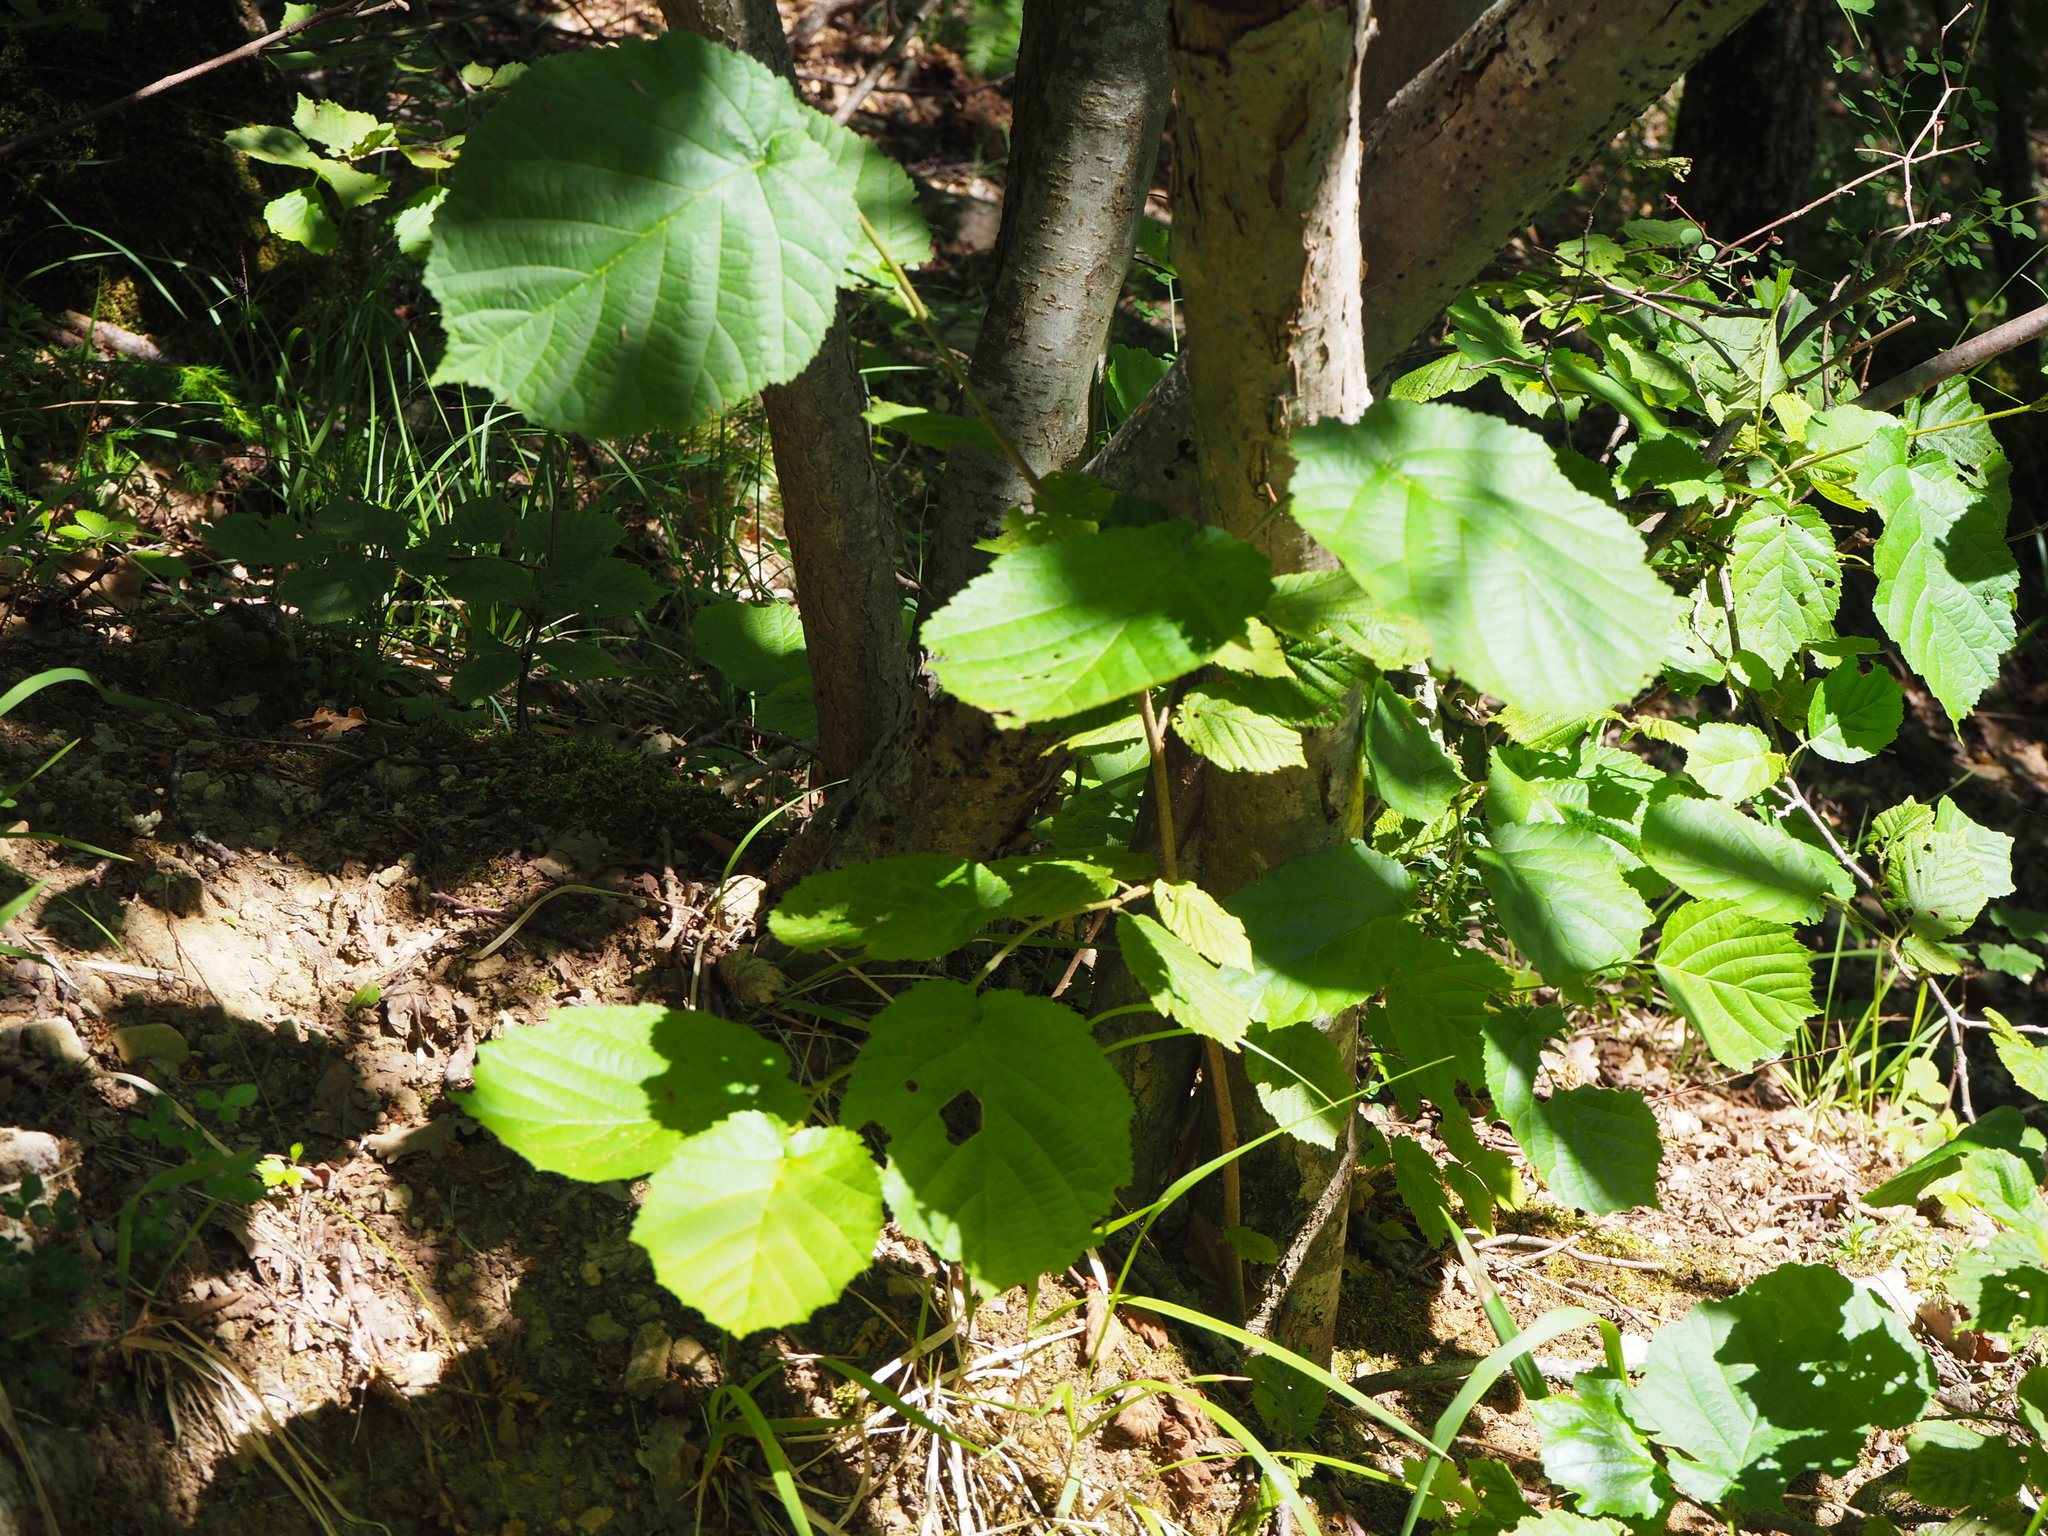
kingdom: Plantae
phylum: Tracheophyta
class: Magnoliopsida
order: Fagales
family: Betulaceae
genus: Corylus
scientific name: Corylus avellana
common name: European hazel
